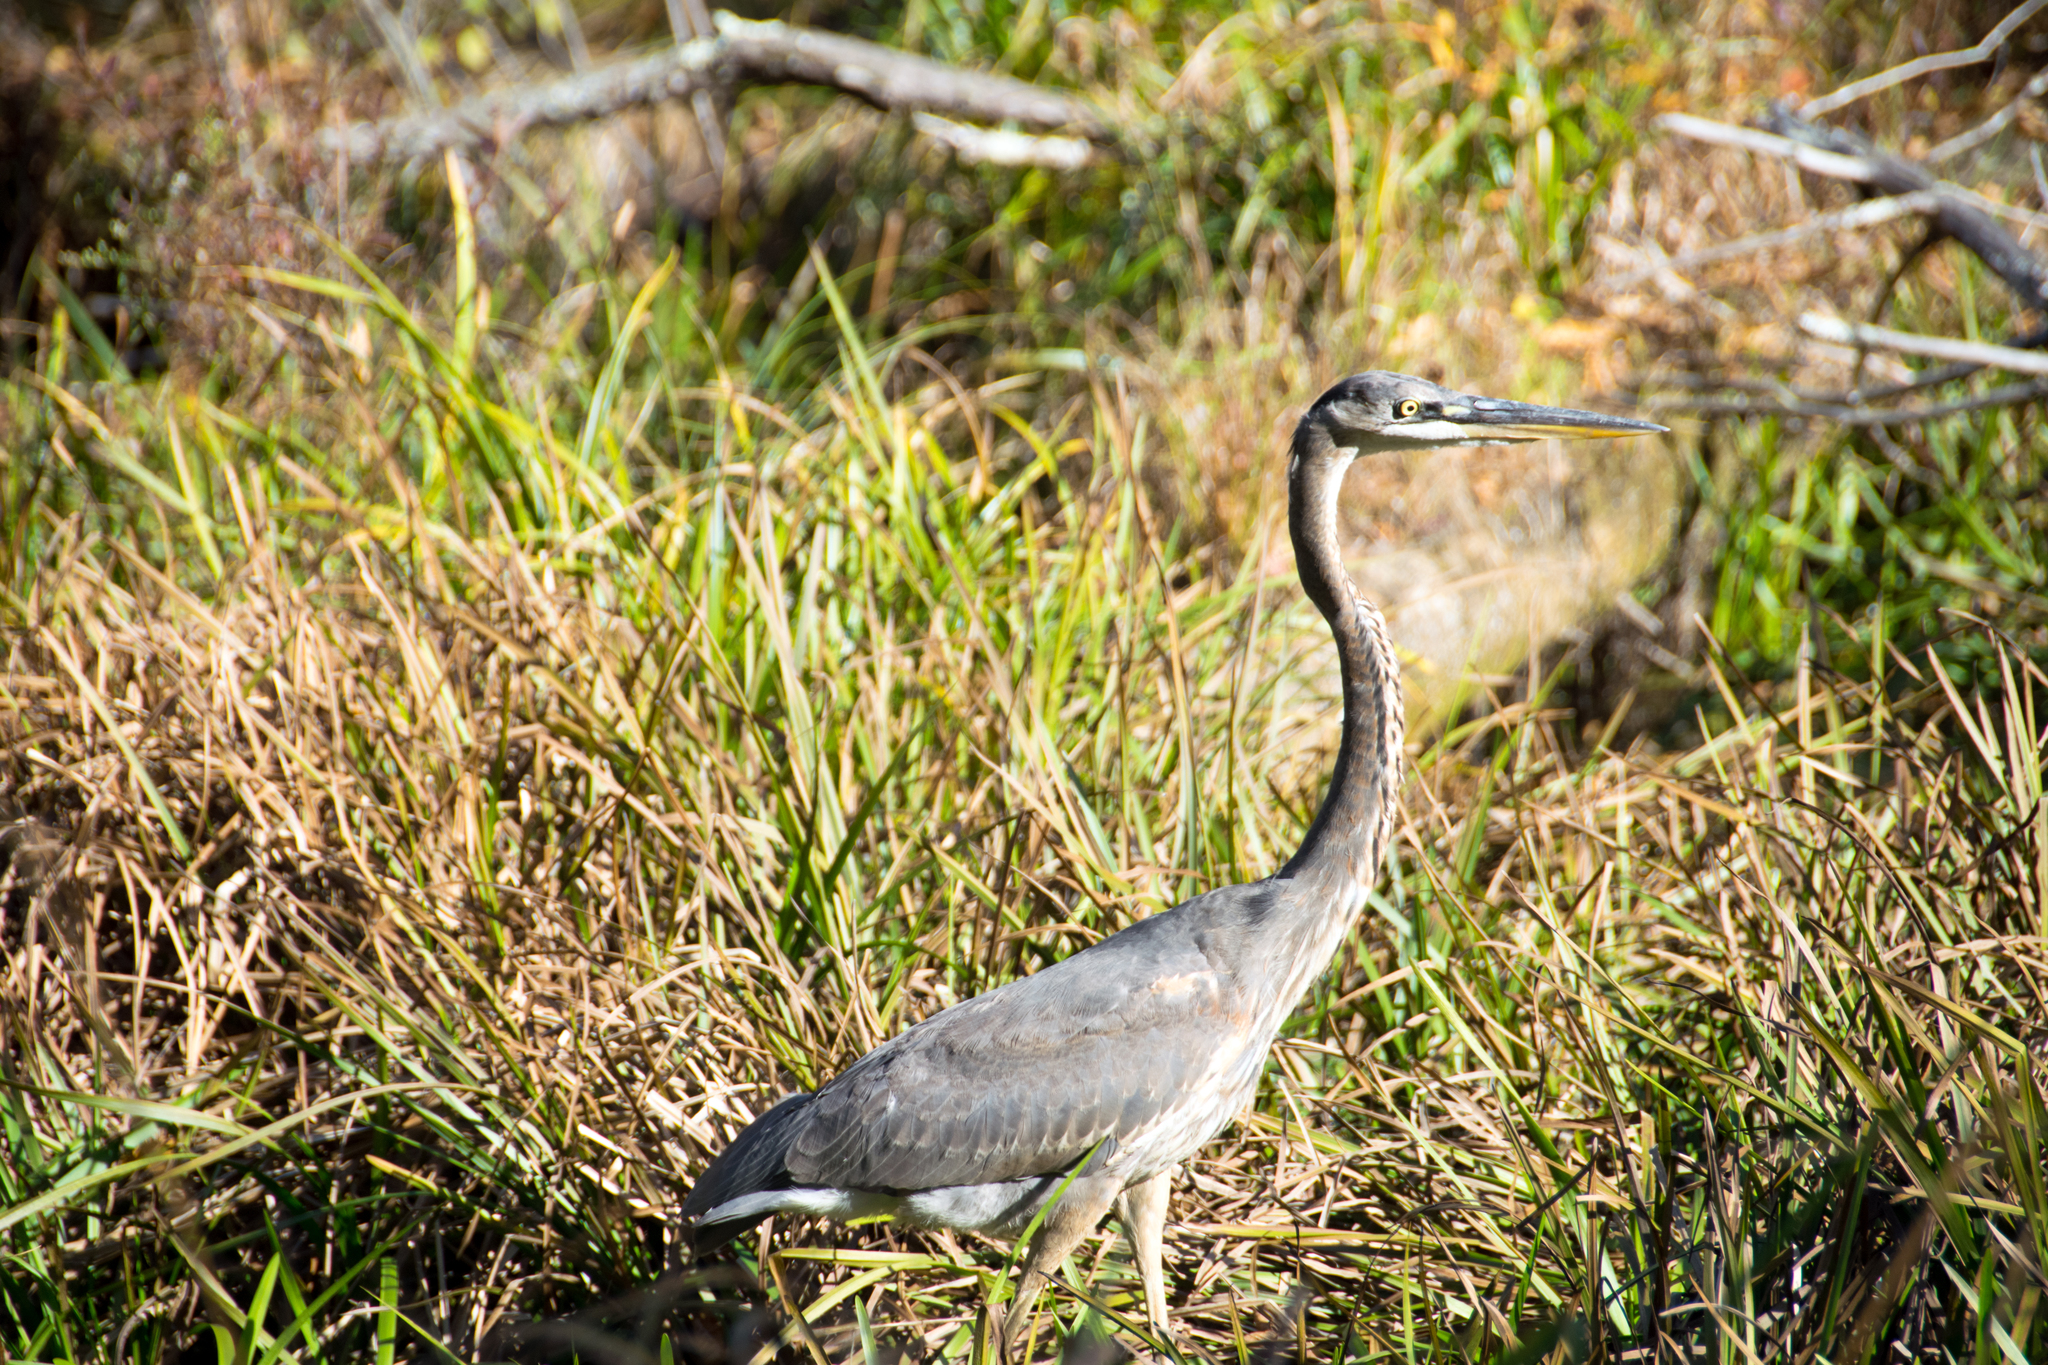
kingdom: Animalia
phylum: Chordata
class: Aves
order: Pelecaniformes
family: Ardeidae
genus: Ardea
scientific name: Ardea herodias
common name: Great blue heron
